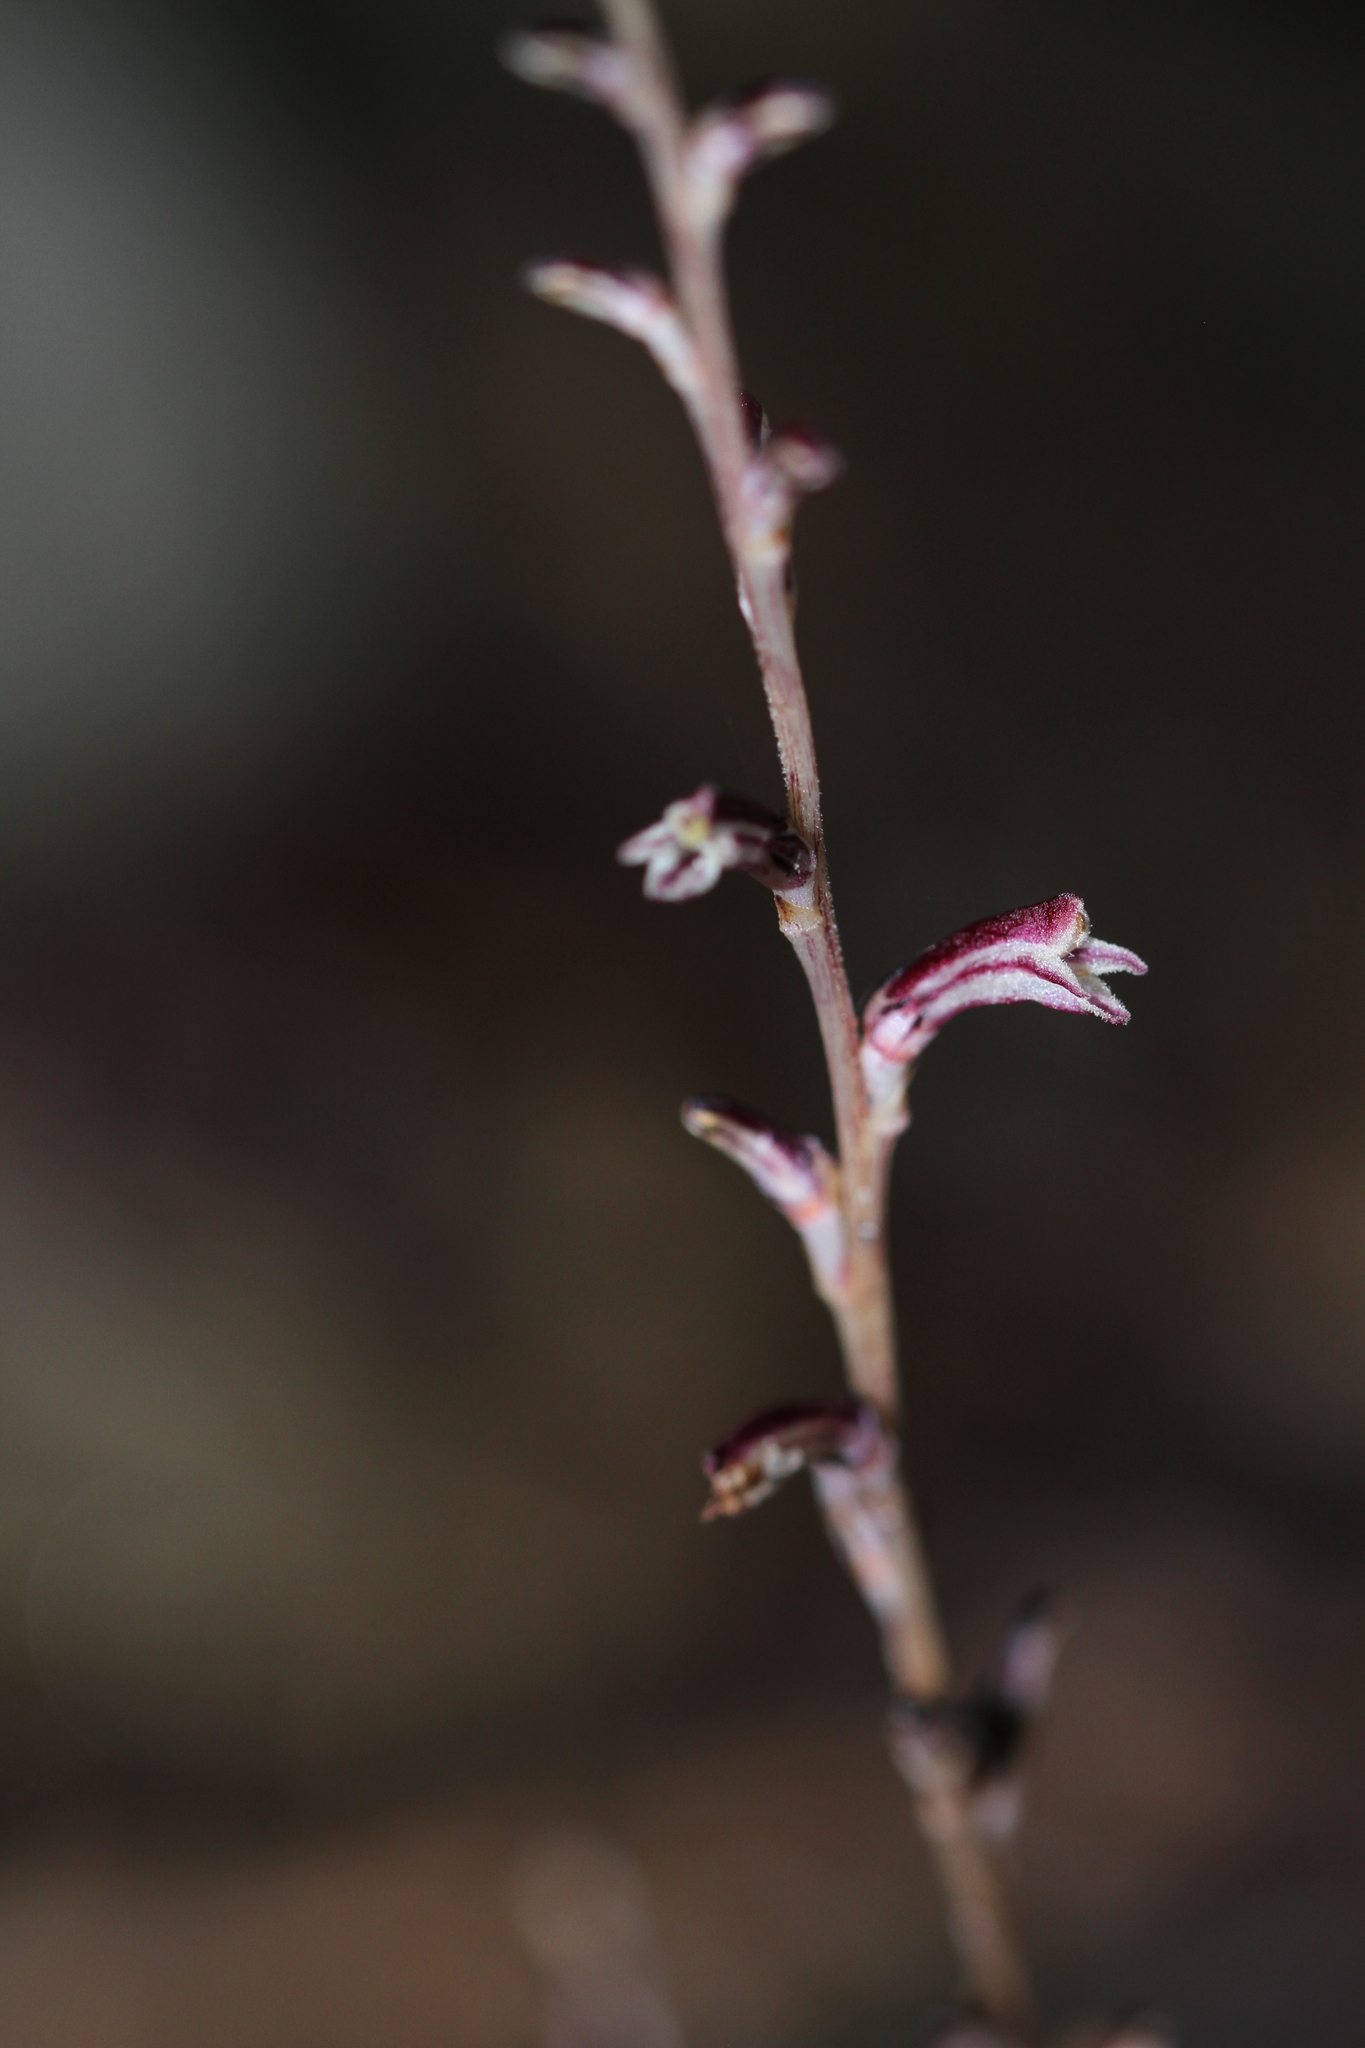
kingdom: Plantae
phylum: Tracheophyta
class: Magnoliopsida
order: Lamiales
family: Orobanchaceae
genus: Epifagus
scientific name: Epifagus virginiana
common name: Beechdrops
